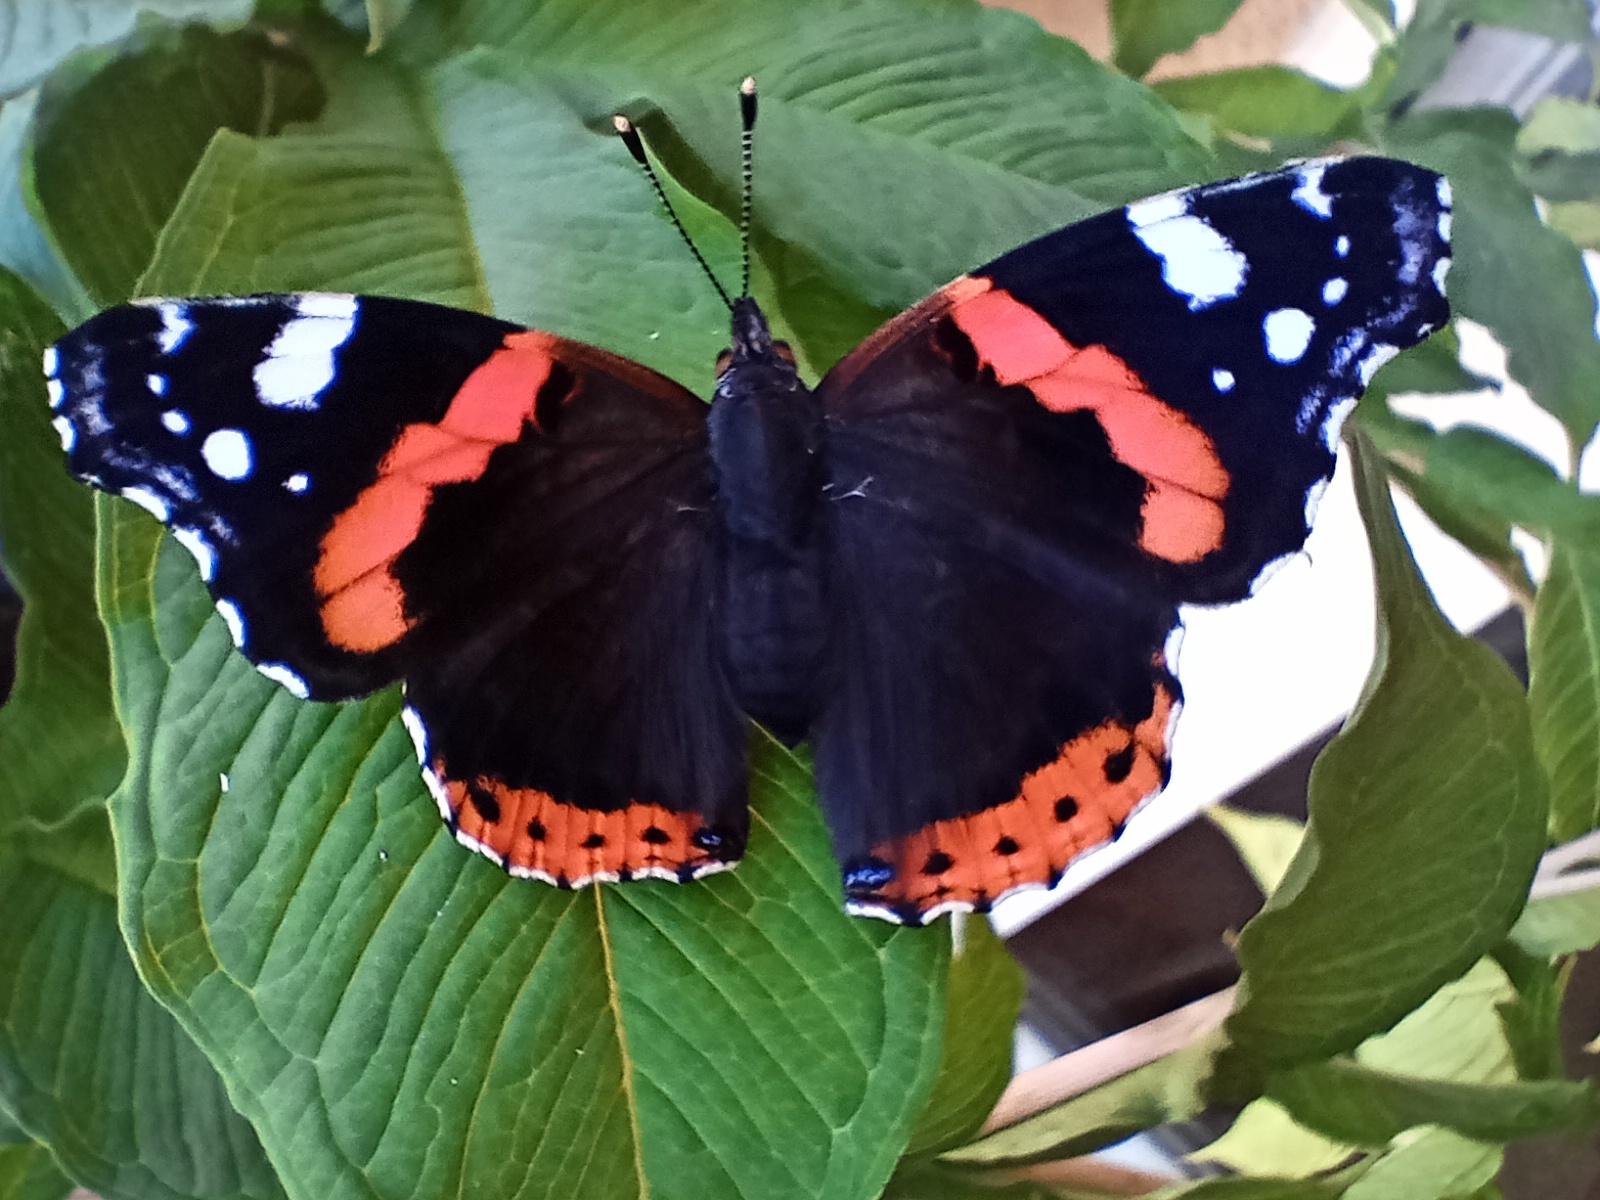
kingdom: Animalia
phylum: Arthropoda
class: Insecta
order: Lepidoptera
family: Nymphalidae
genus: Vanessa
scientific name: Vanessa atalanta
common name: Red admiral
